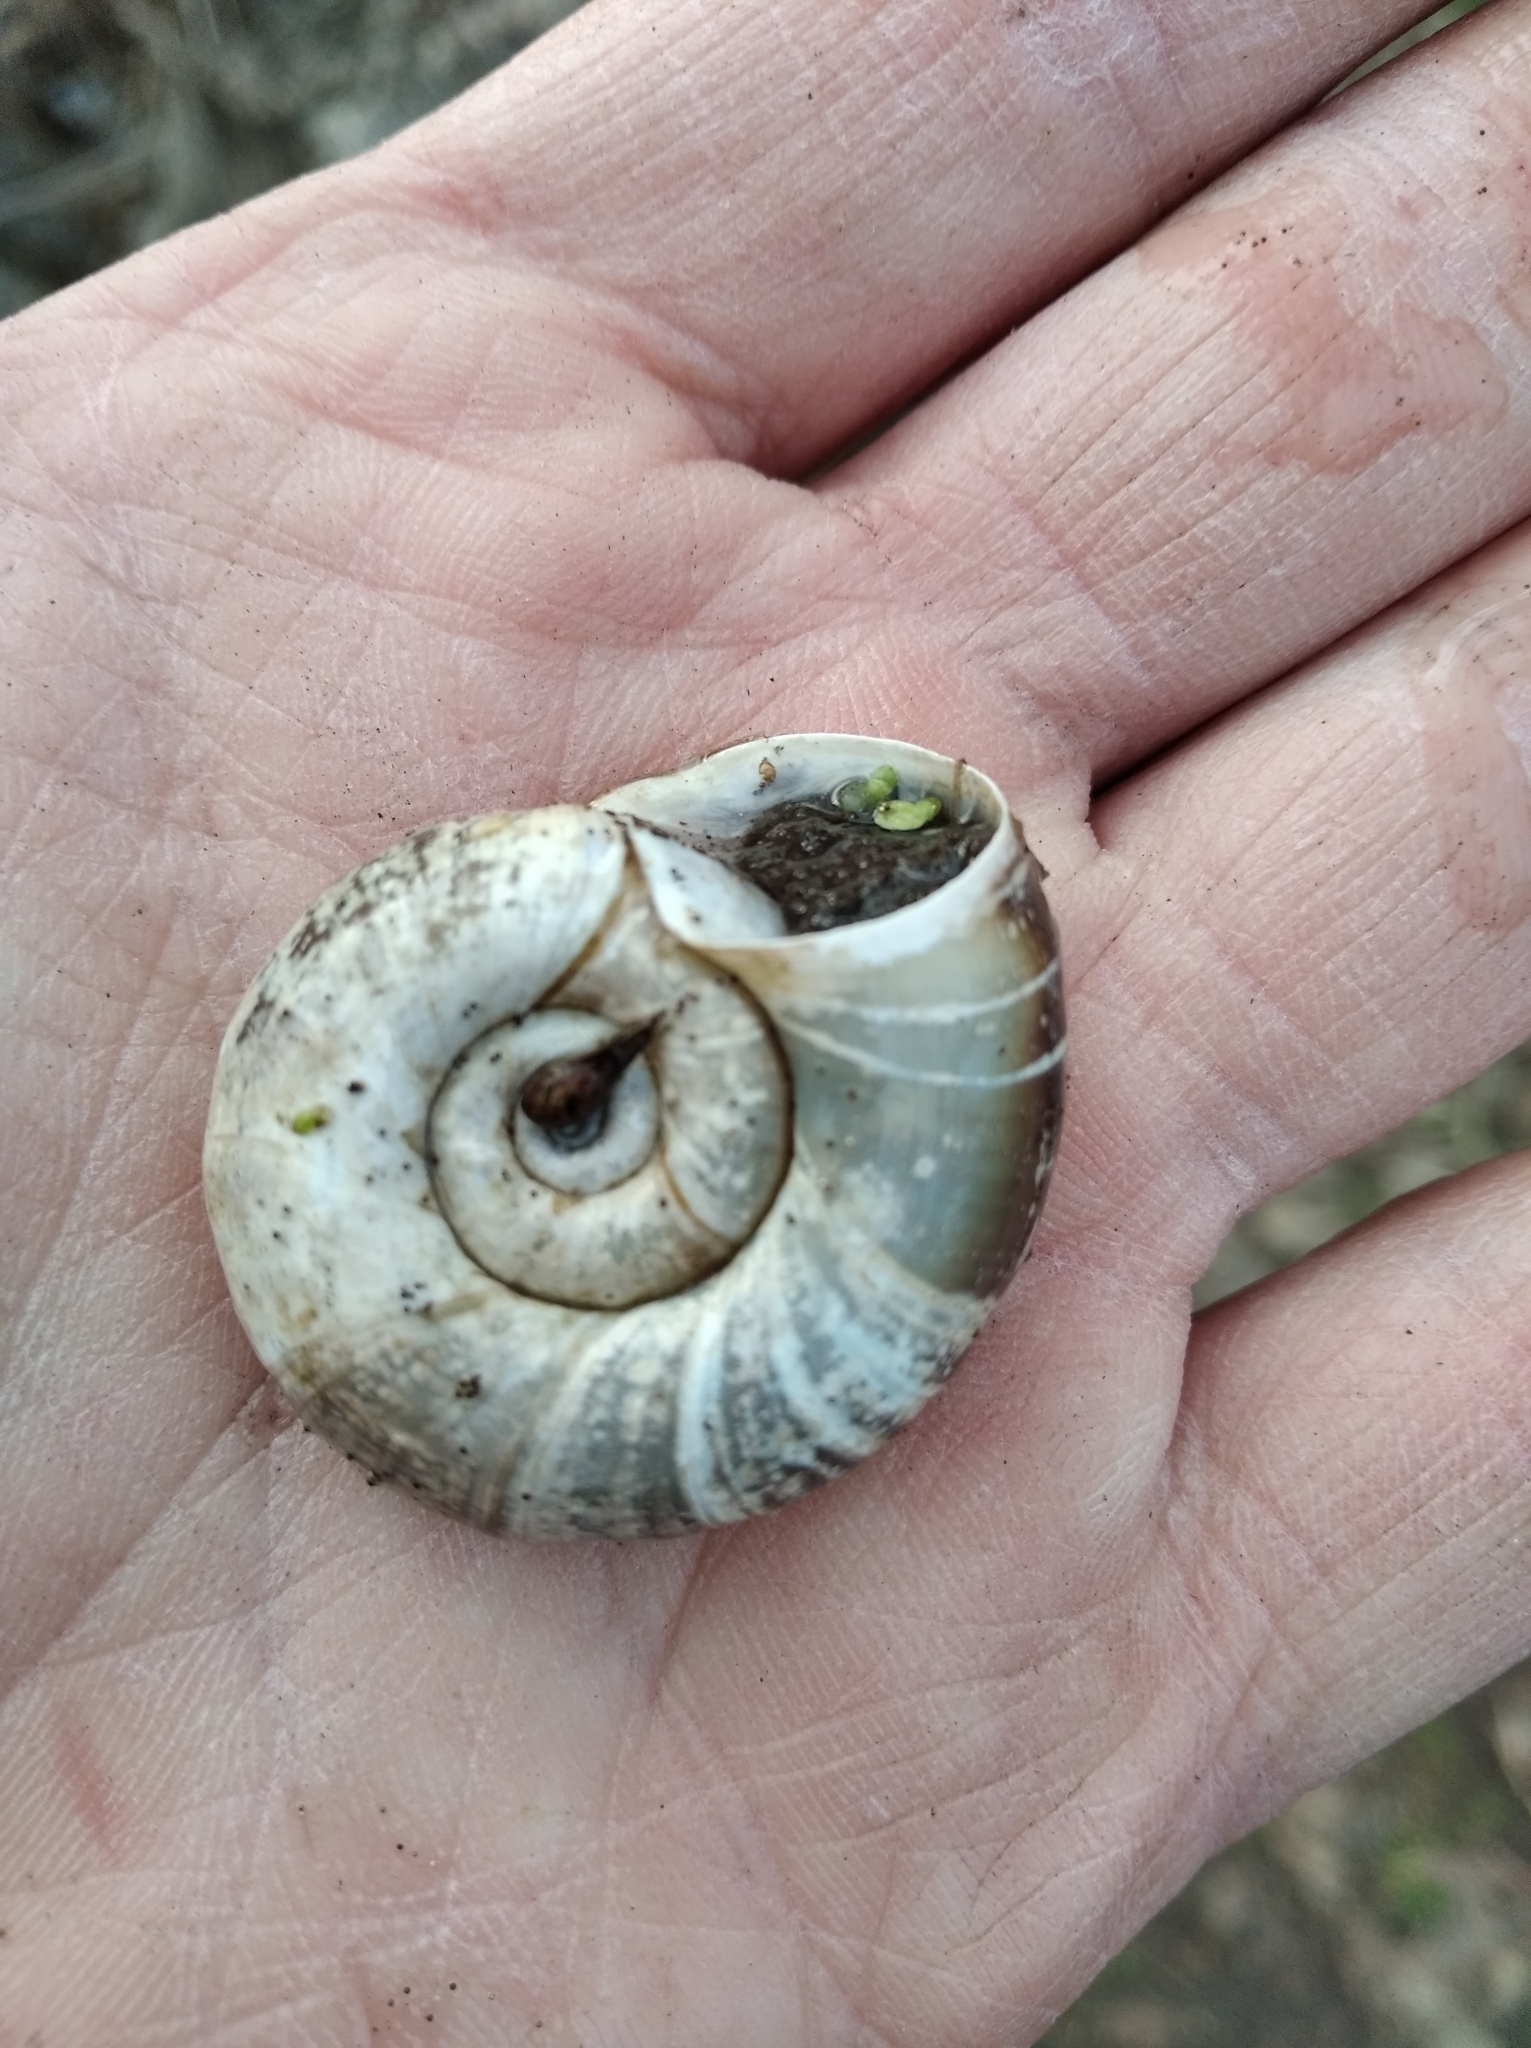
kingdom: Animalia
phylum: Mollusca
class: Gastropoda
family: Planorbidae
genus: Planorbarius
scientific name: Planorbarius corneus
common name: Great ramshorn
